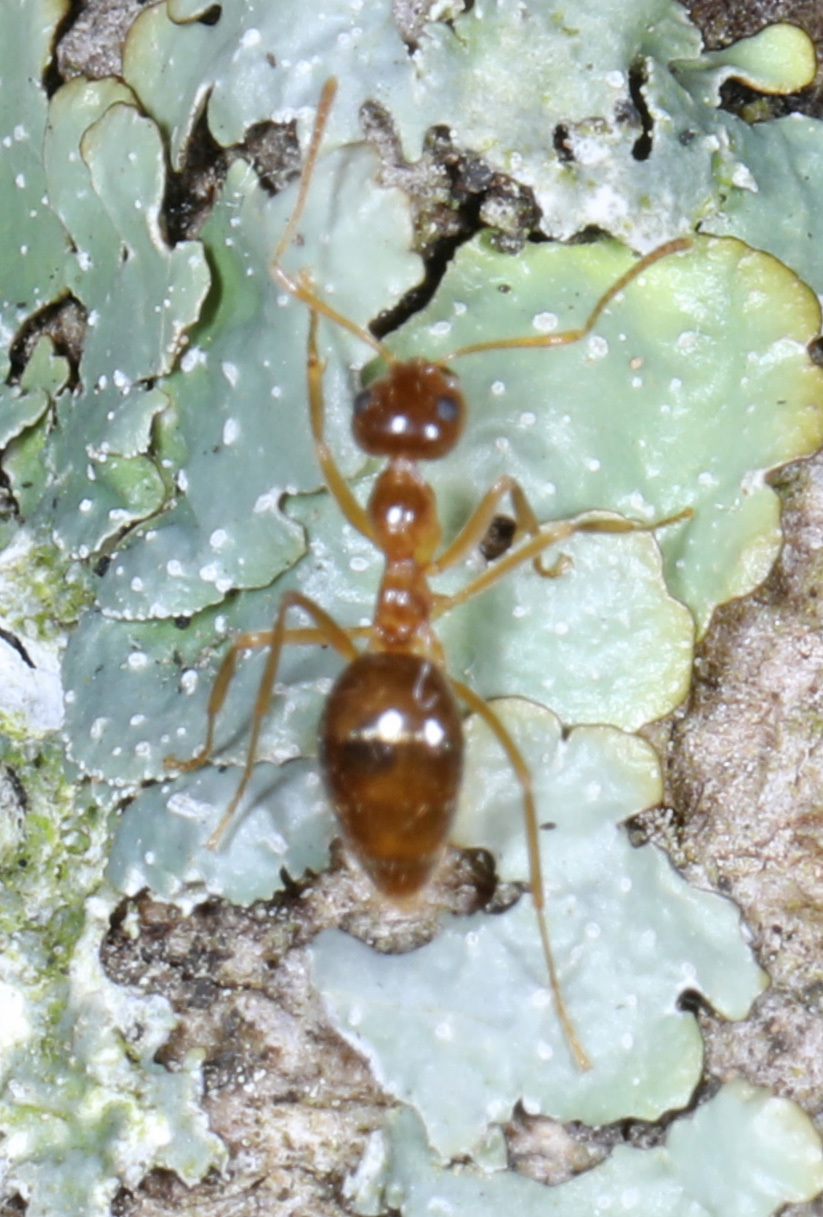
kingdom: Animalia
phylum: Arthropoda
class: Insecta
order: Hymenoptera
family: Formicidae
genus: Prenolepis
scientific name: Prenolepis imparis
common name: Small honey ant
